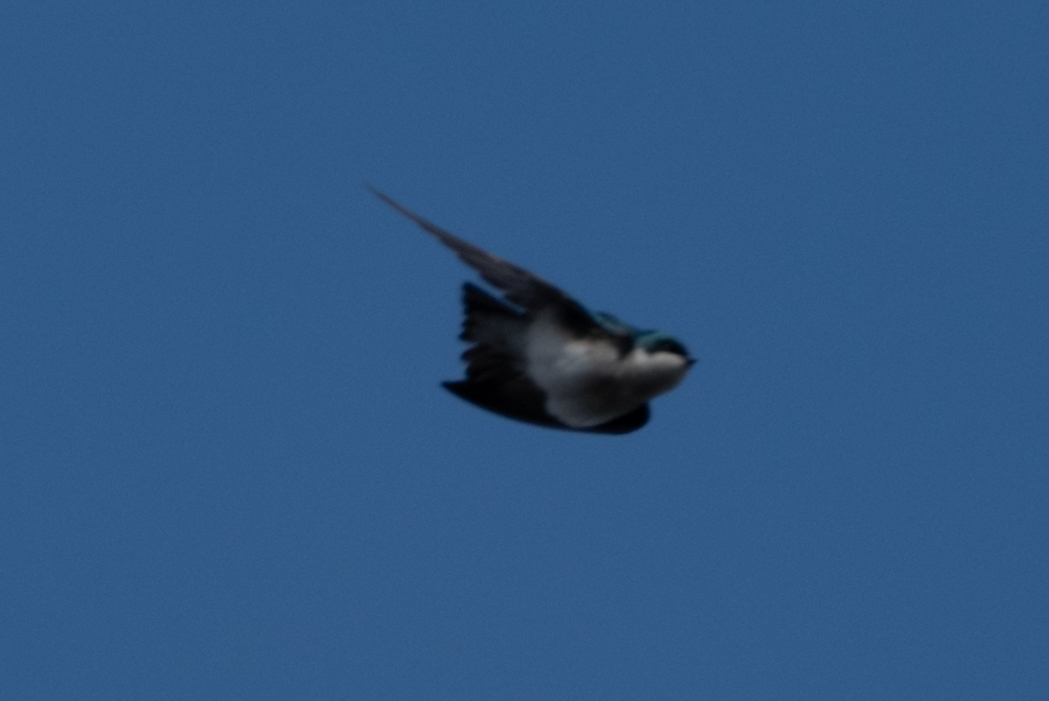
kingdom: Animalia
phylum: Chordata
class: Aves
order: Passeriformes
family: Hirundinidae
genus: Tachycineta
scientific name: Tachycineta bicolor
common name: Tree swallow
